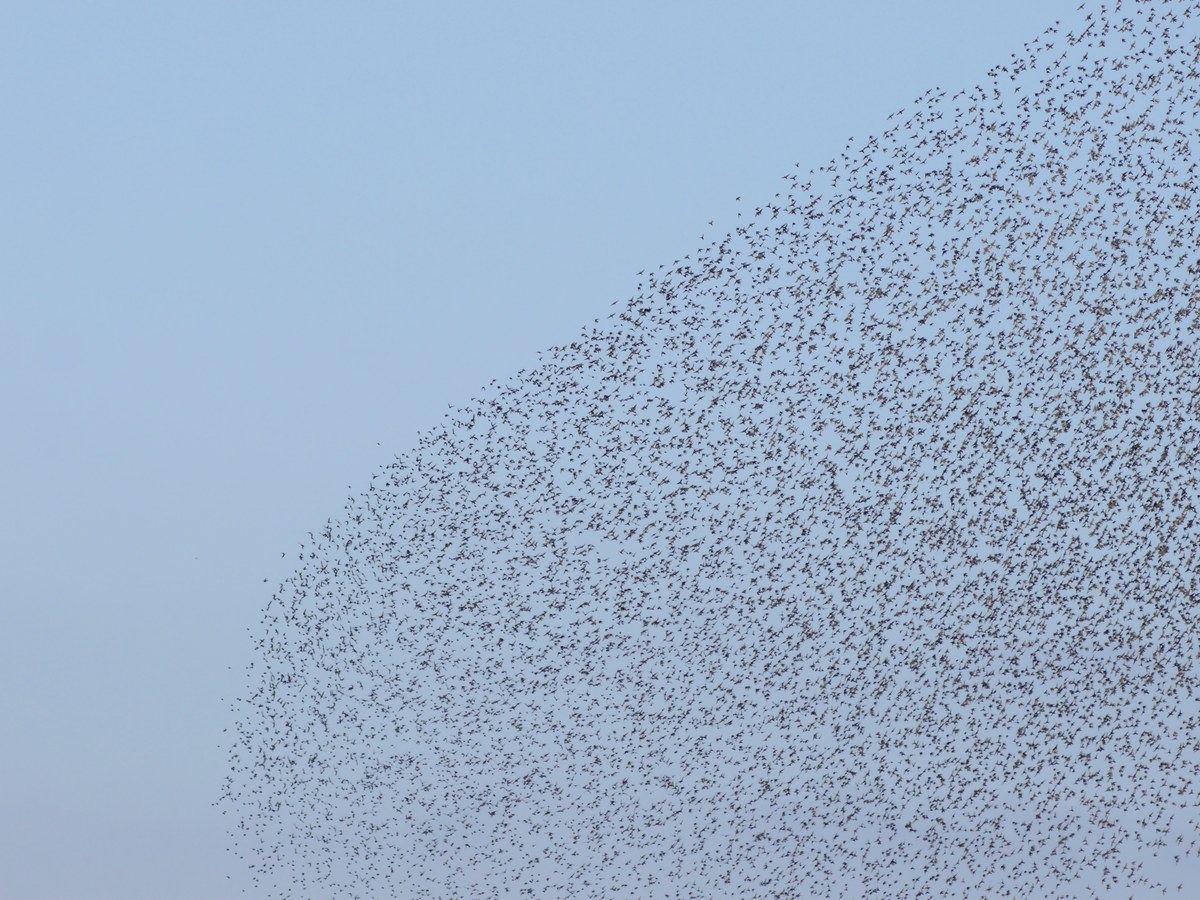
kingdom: Animalia
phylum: Chordata
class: Aves
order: Passeriformes
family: Sturnidae
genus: Sturnus
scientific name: Sturnus vulgaris
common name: Common starling
